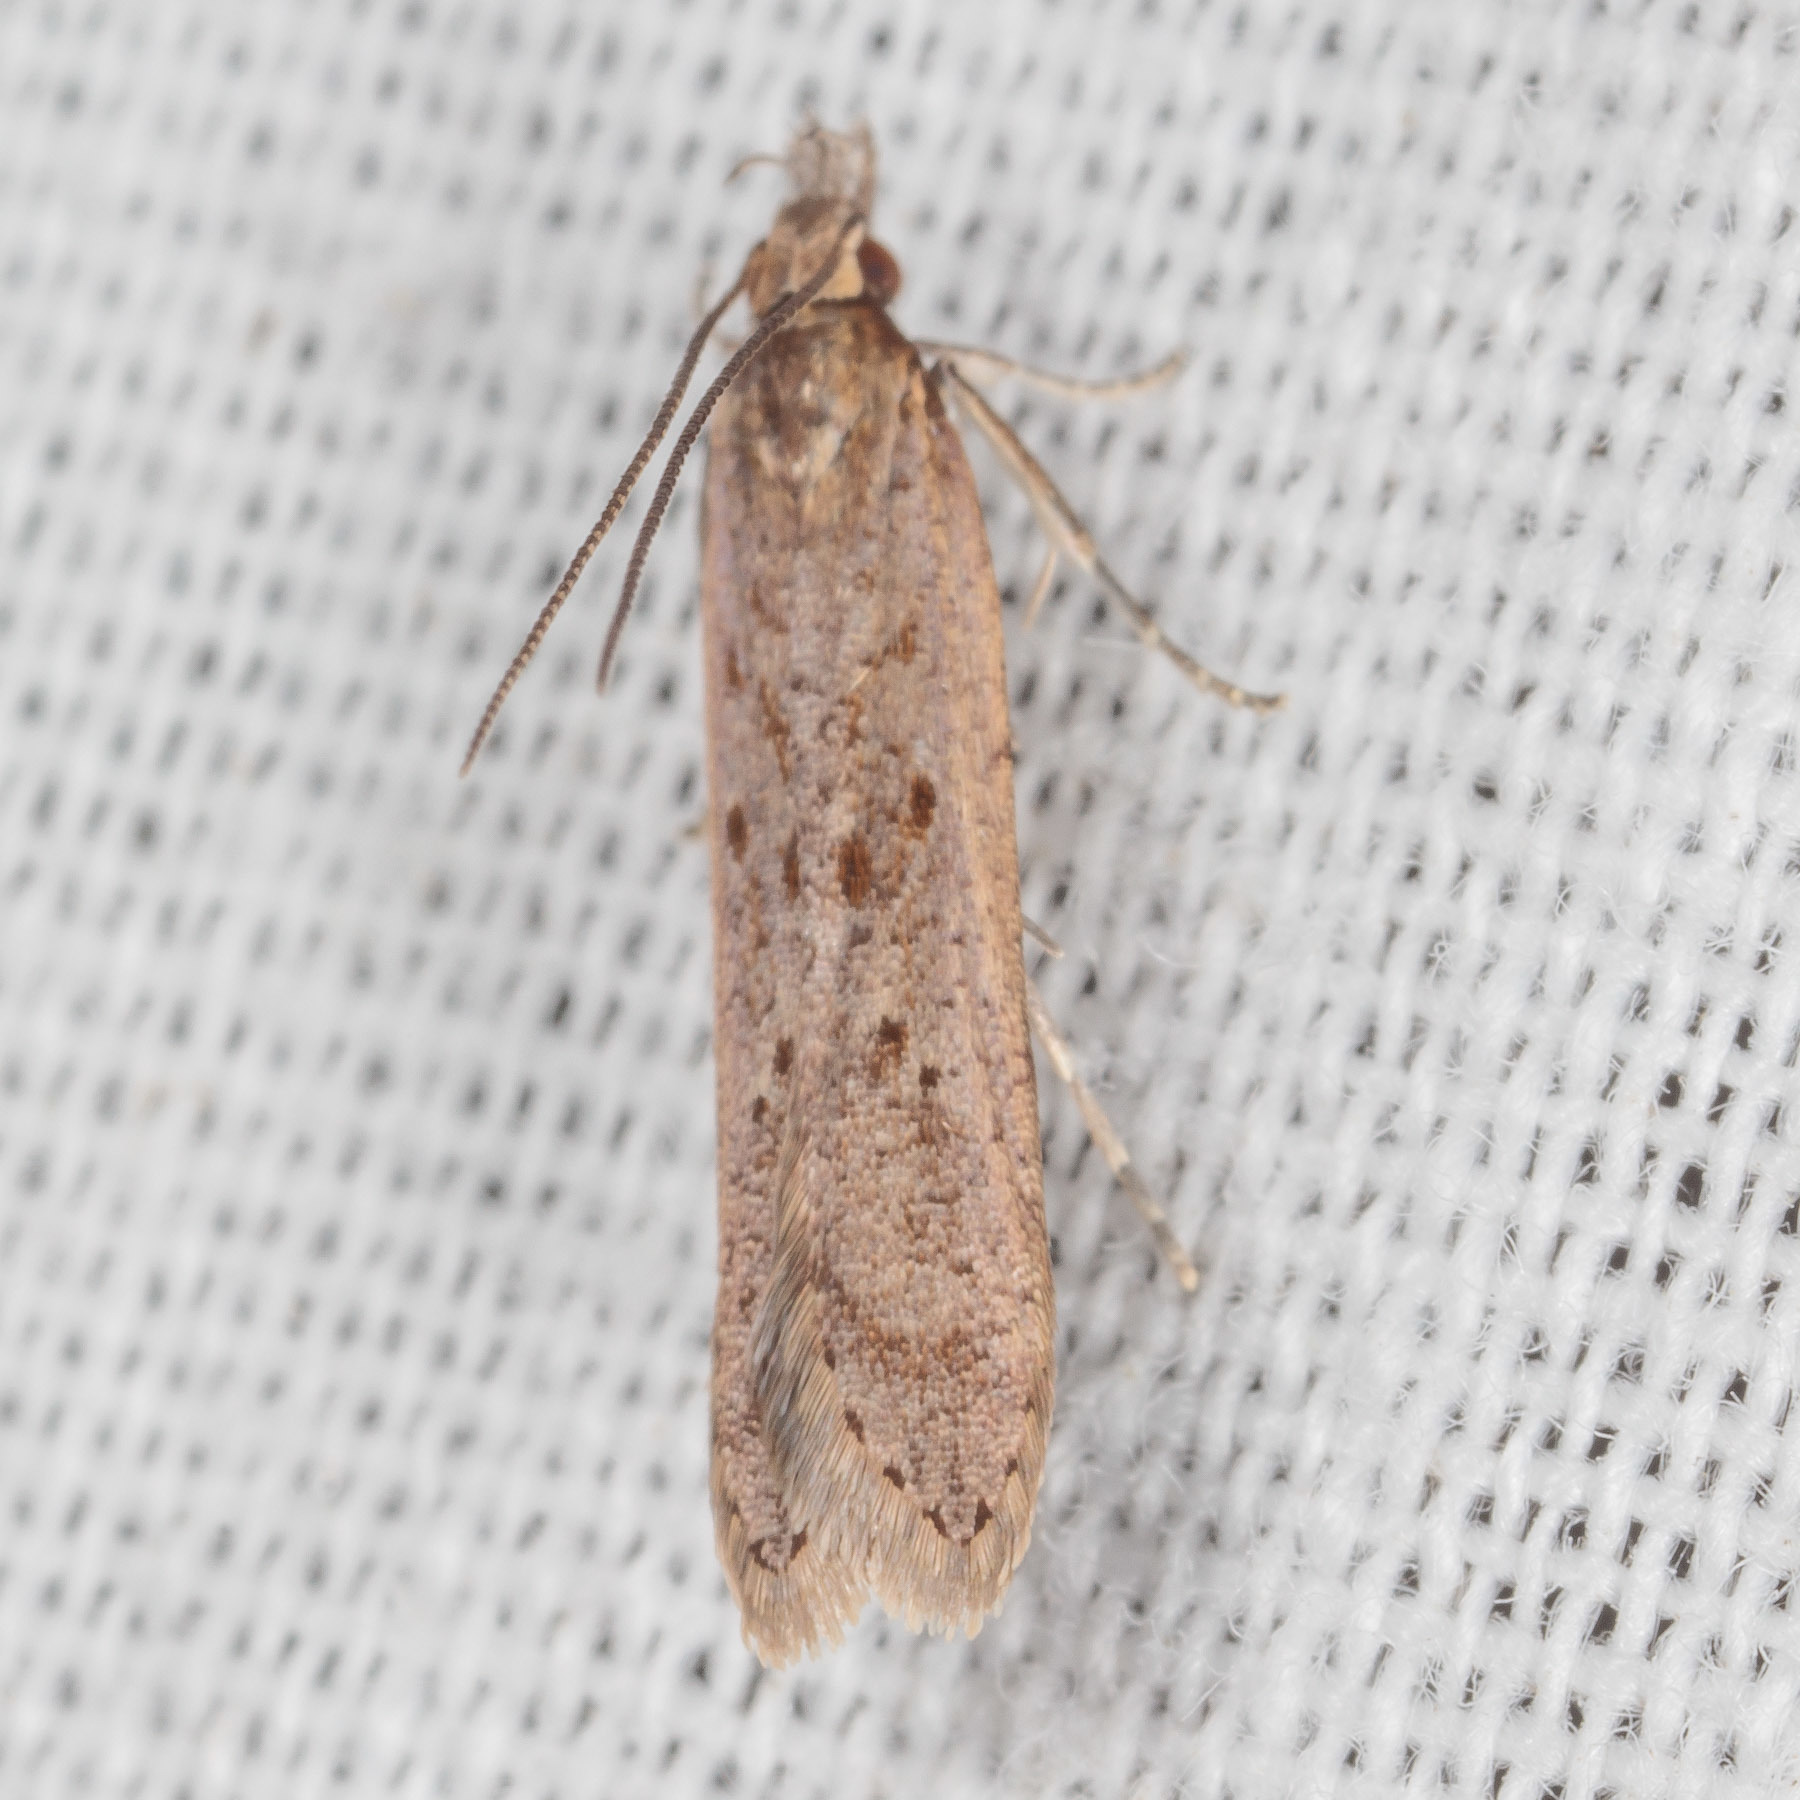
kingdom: Animalia
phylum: Arthropoda
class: Insecta
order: Lepidoptera
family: Gelechiidae
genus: Dichomeris
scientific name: Dichomeris ligulella
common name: Moth
